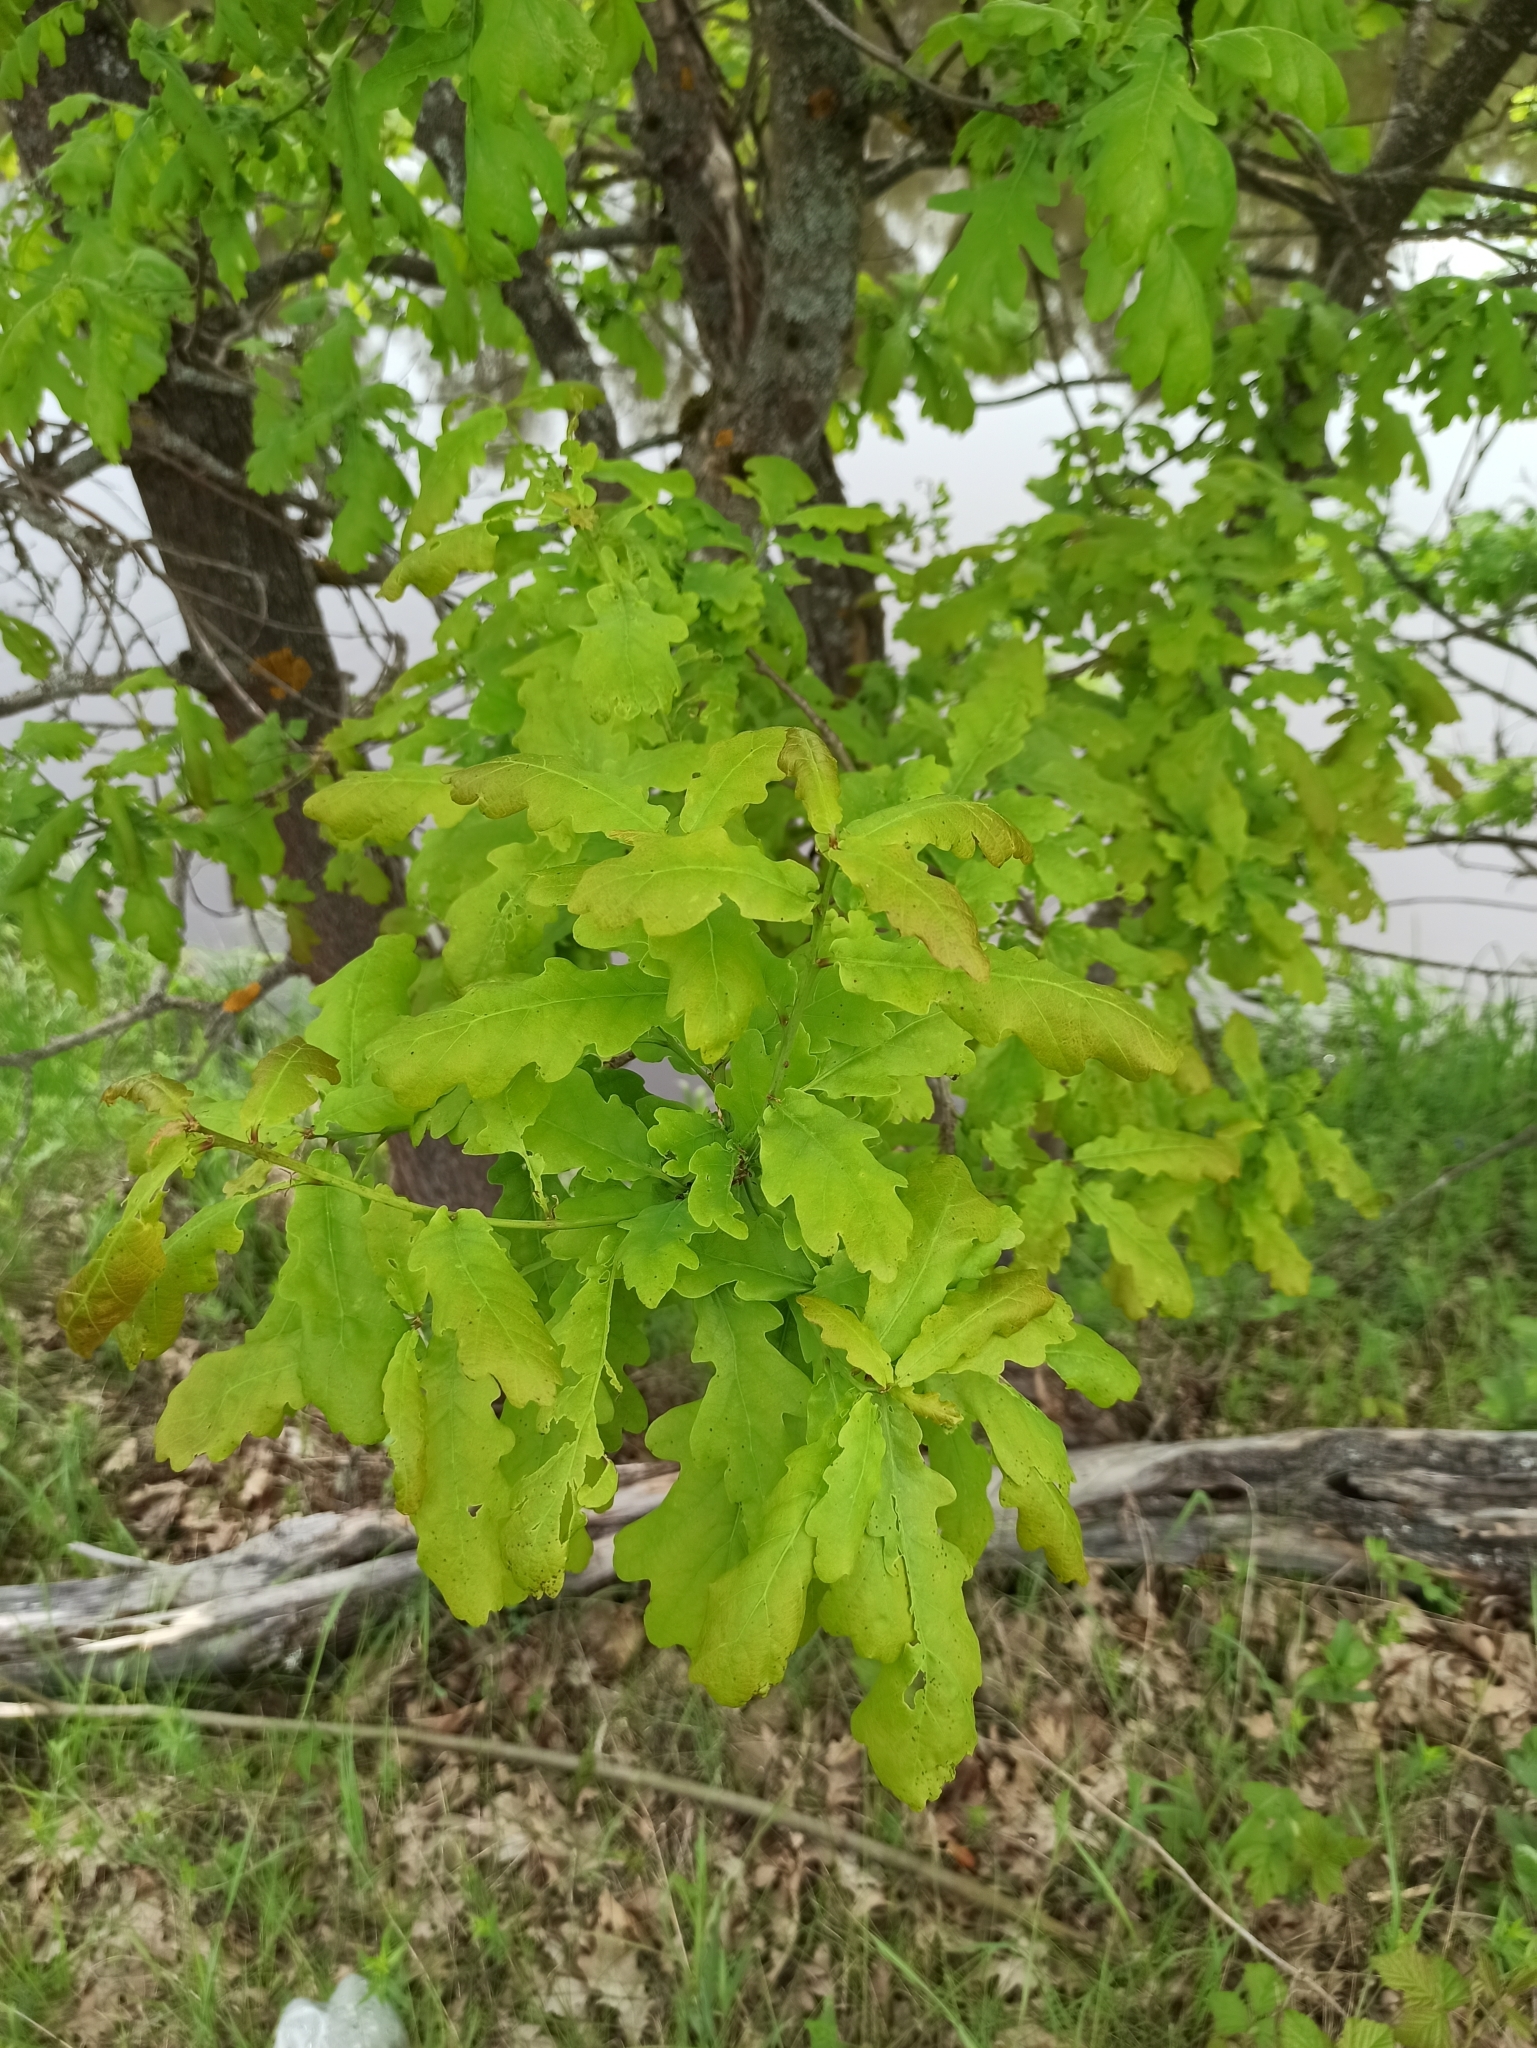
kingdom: Plantae
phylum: Tracheophyta
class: Magnoliopsida
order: Fagales
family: Fagaceae
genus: Quercus
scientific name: Quercus robur
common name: Pedunculate oak
